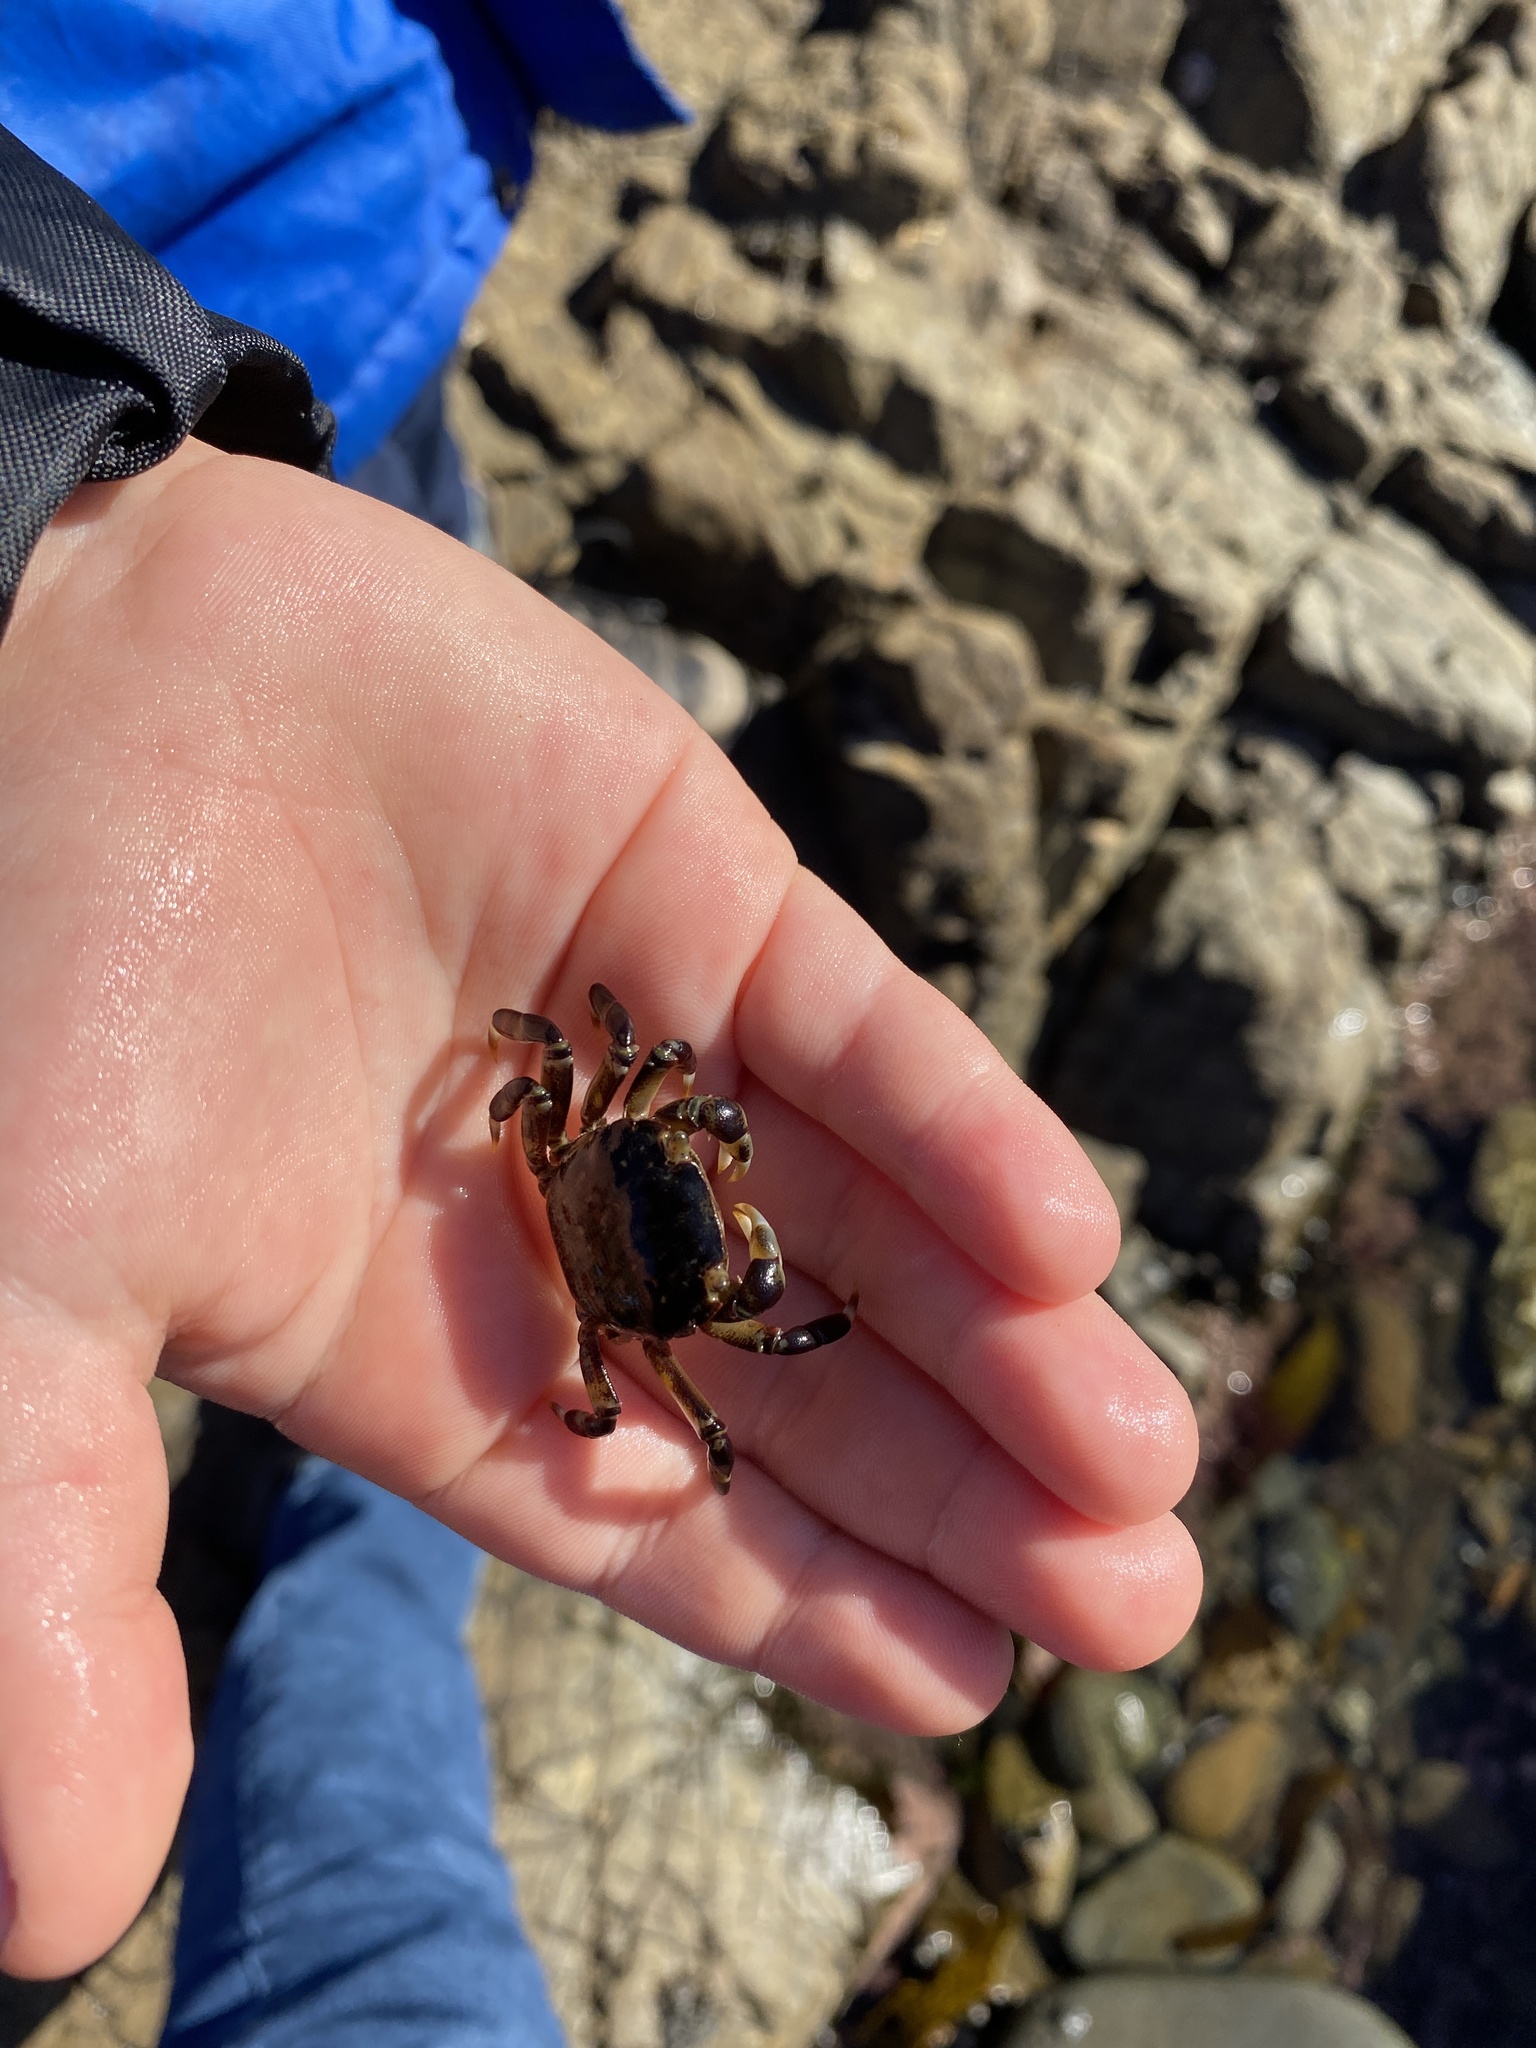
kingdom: Animalia
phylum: Arthropoda
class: Malacostraca
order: Decapoda
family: Varunidae
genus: Hemigrapsus
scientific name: Hemigrapsus sexdentatus
